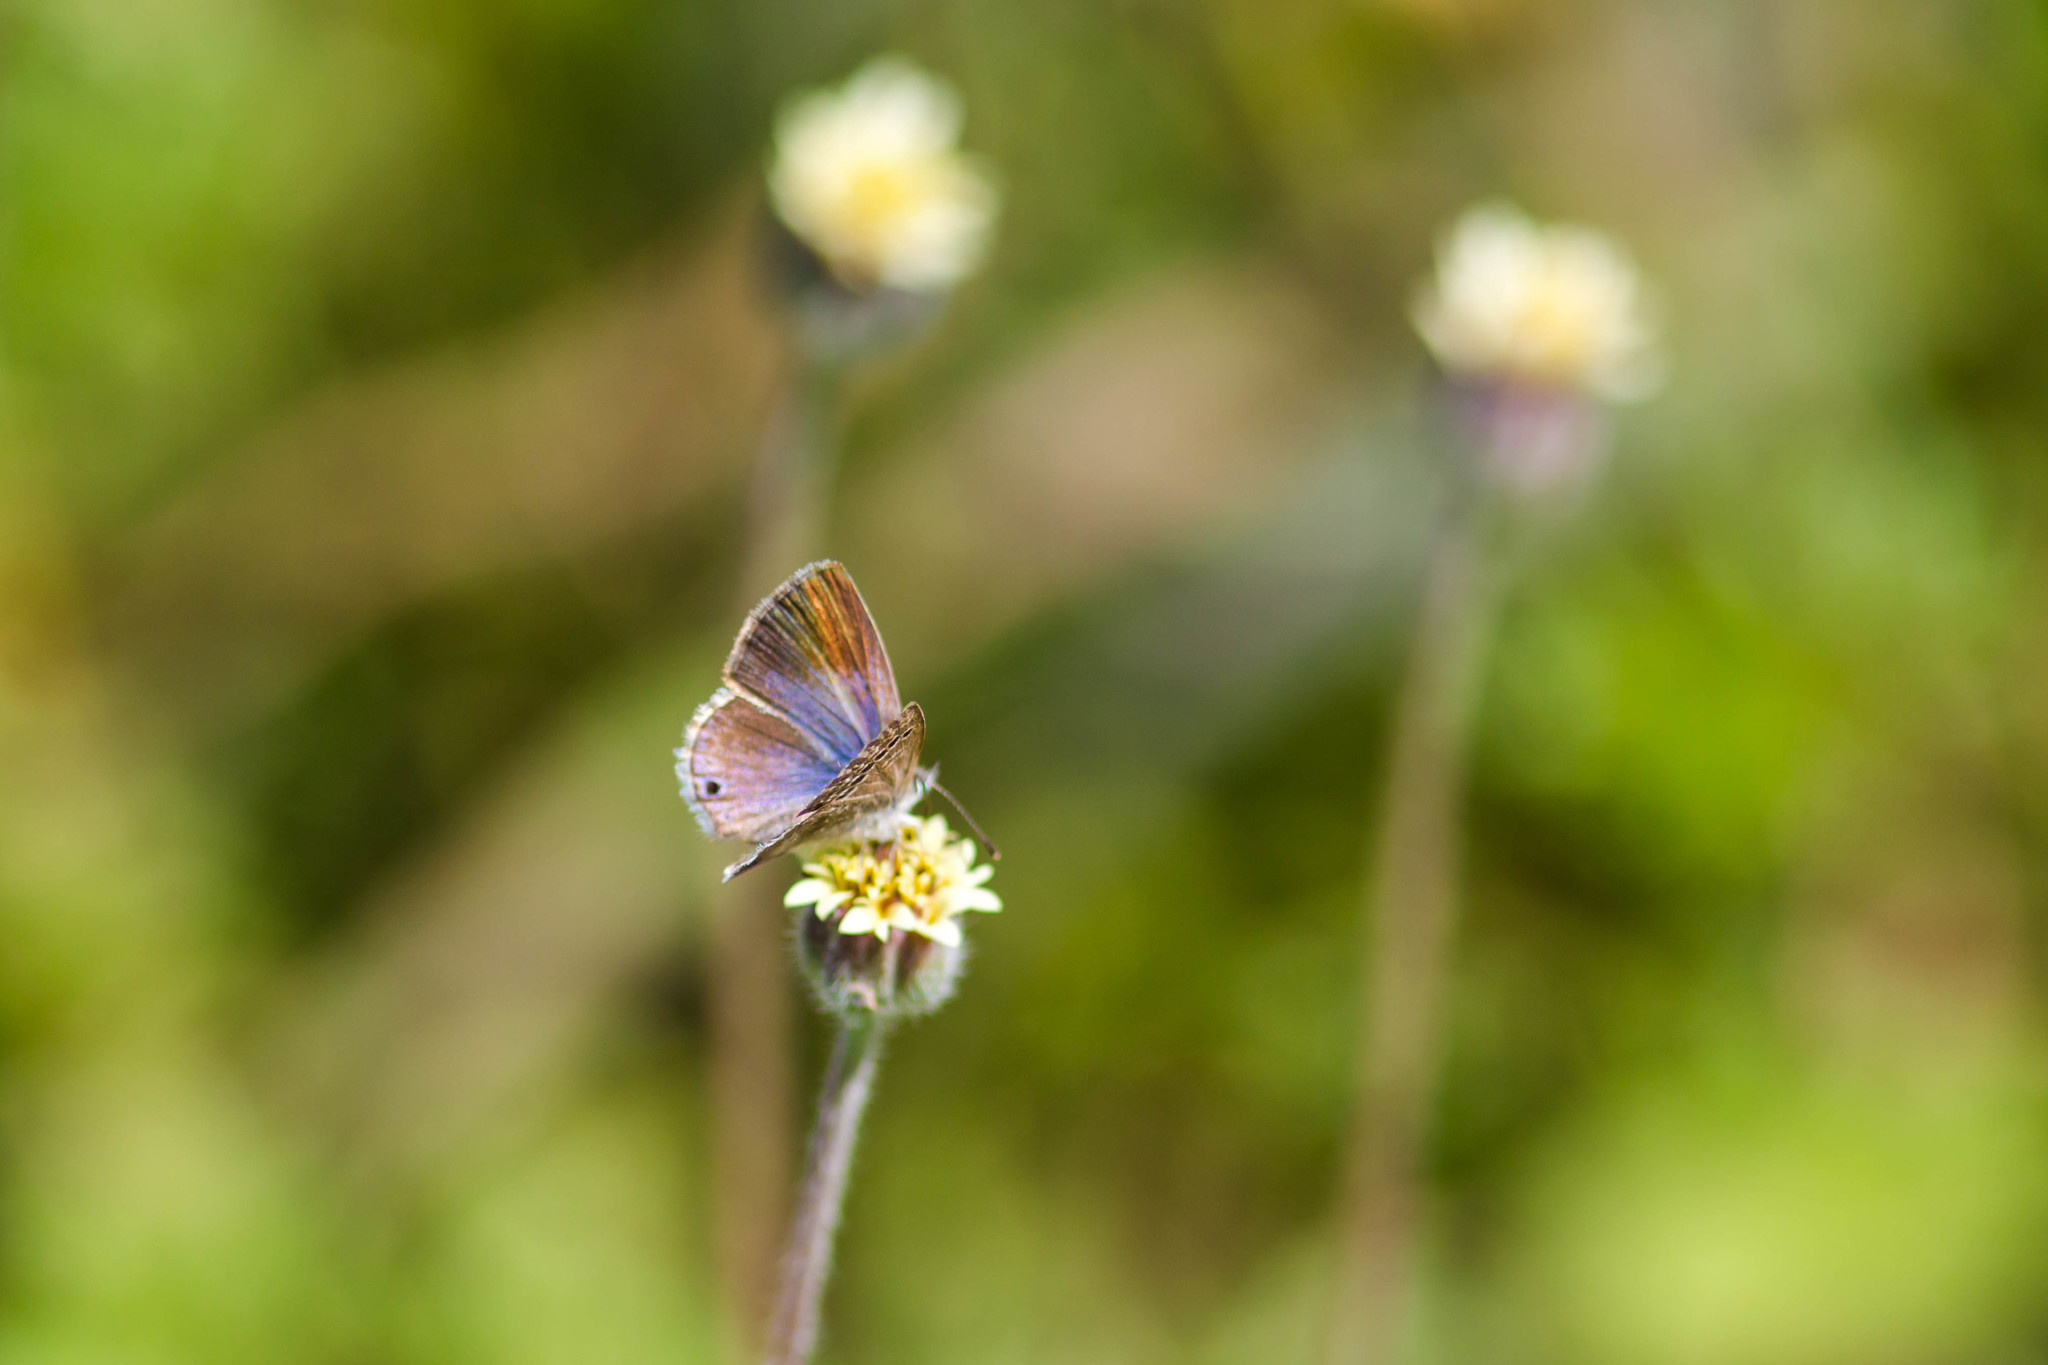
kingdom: Animalia
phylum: Arthropoda
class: Insecta
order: Lepidoptera
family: Lycaenidae
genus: Echinargus
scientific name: Echinargus isola
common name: Reakirt's blue
